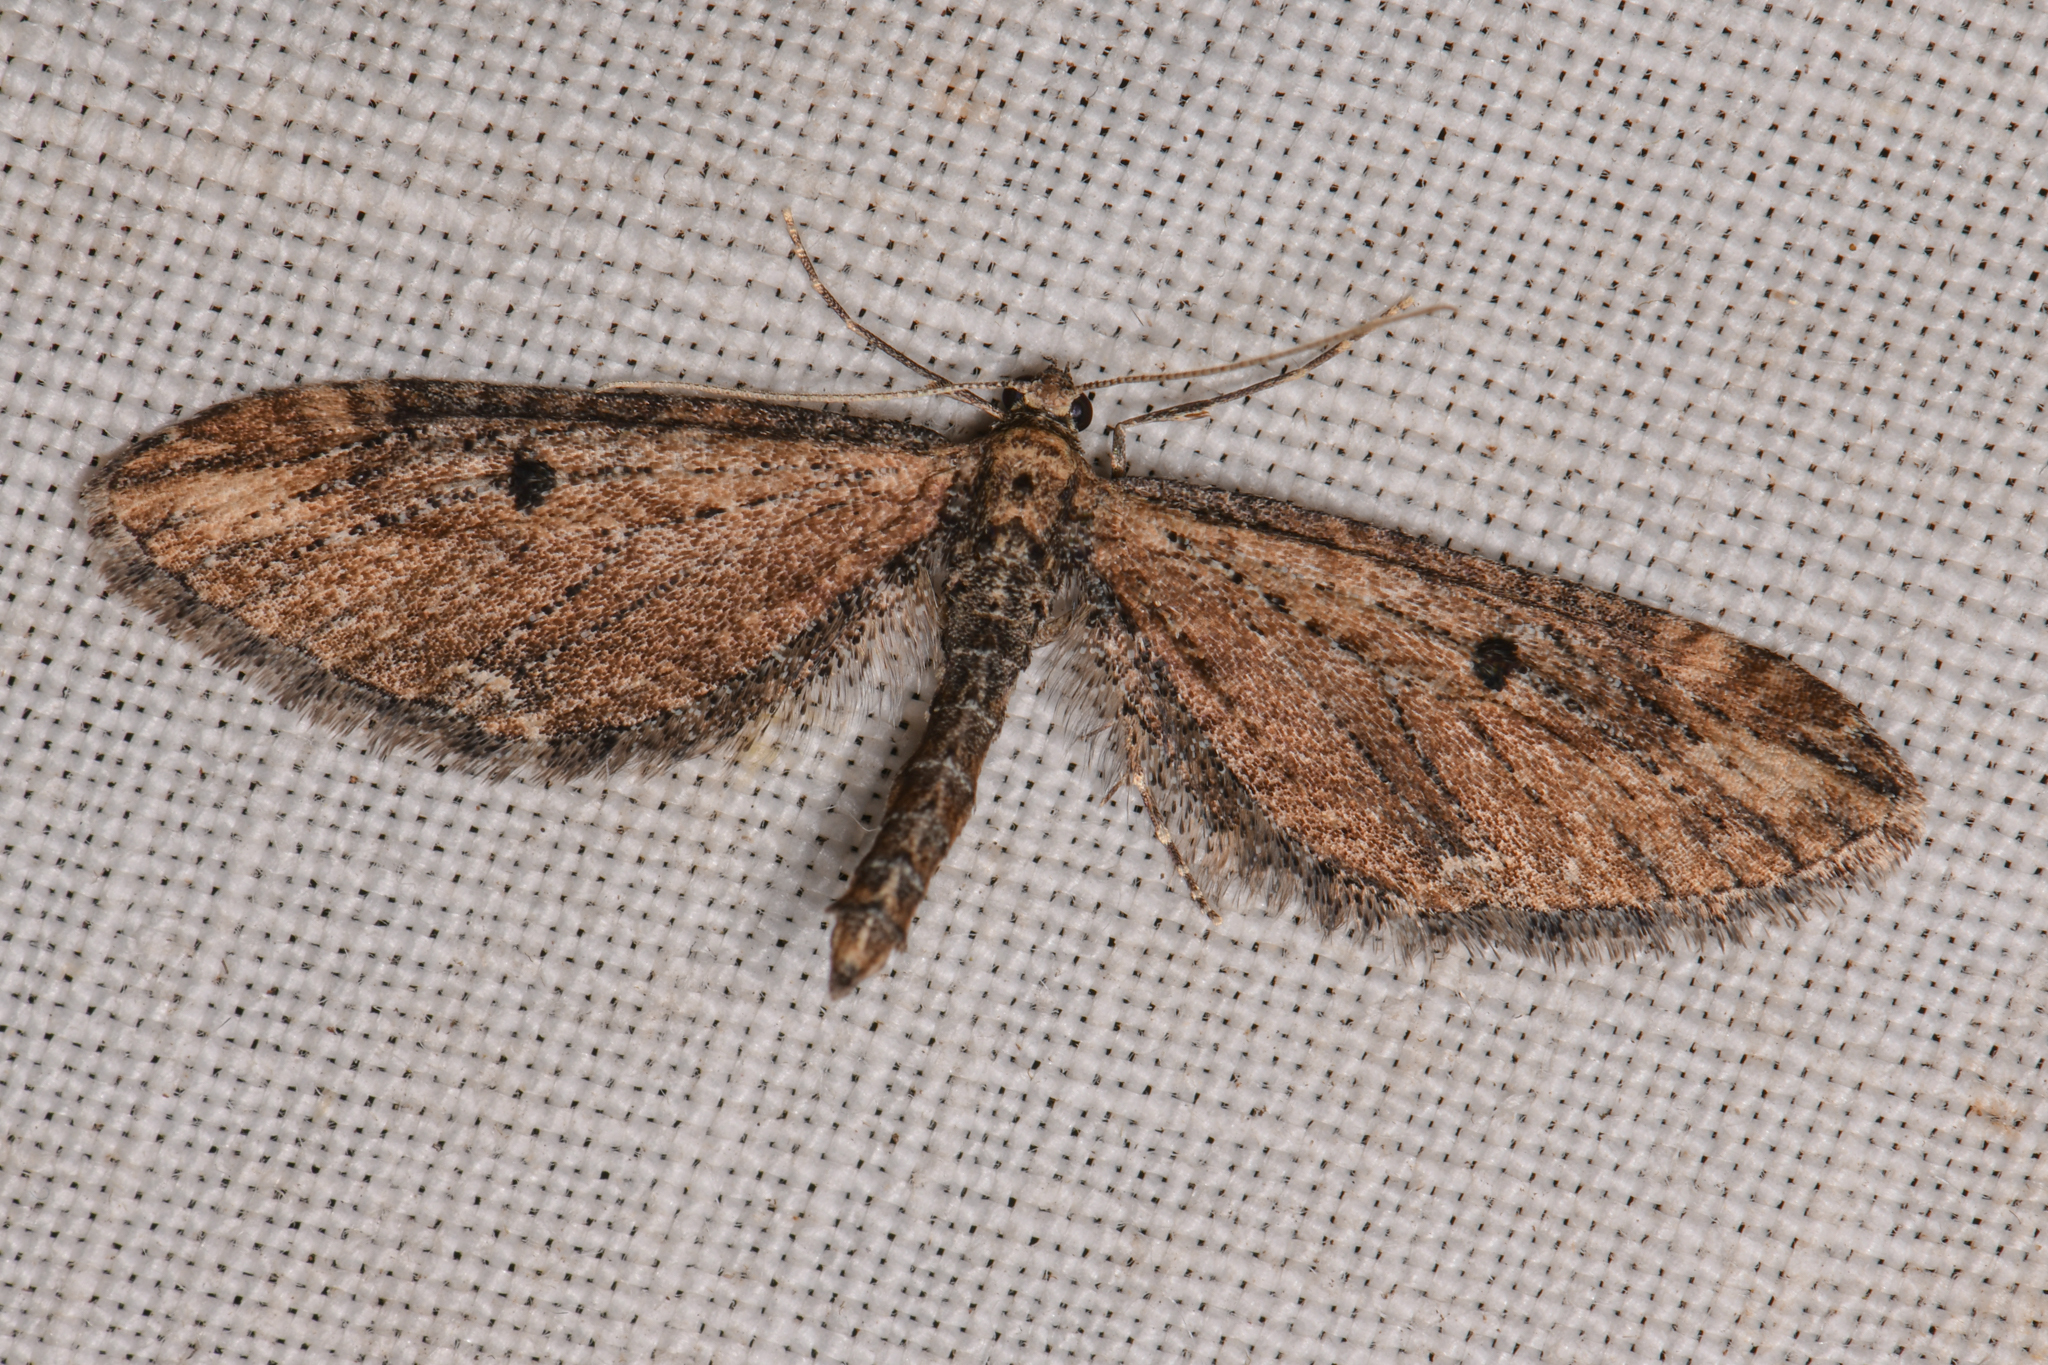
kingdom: Animalia
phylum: Arthropoda
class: Insecta
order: Lepidoptera
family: Geometridae
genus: Eupithecia
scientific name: Eupithecia subapicata
